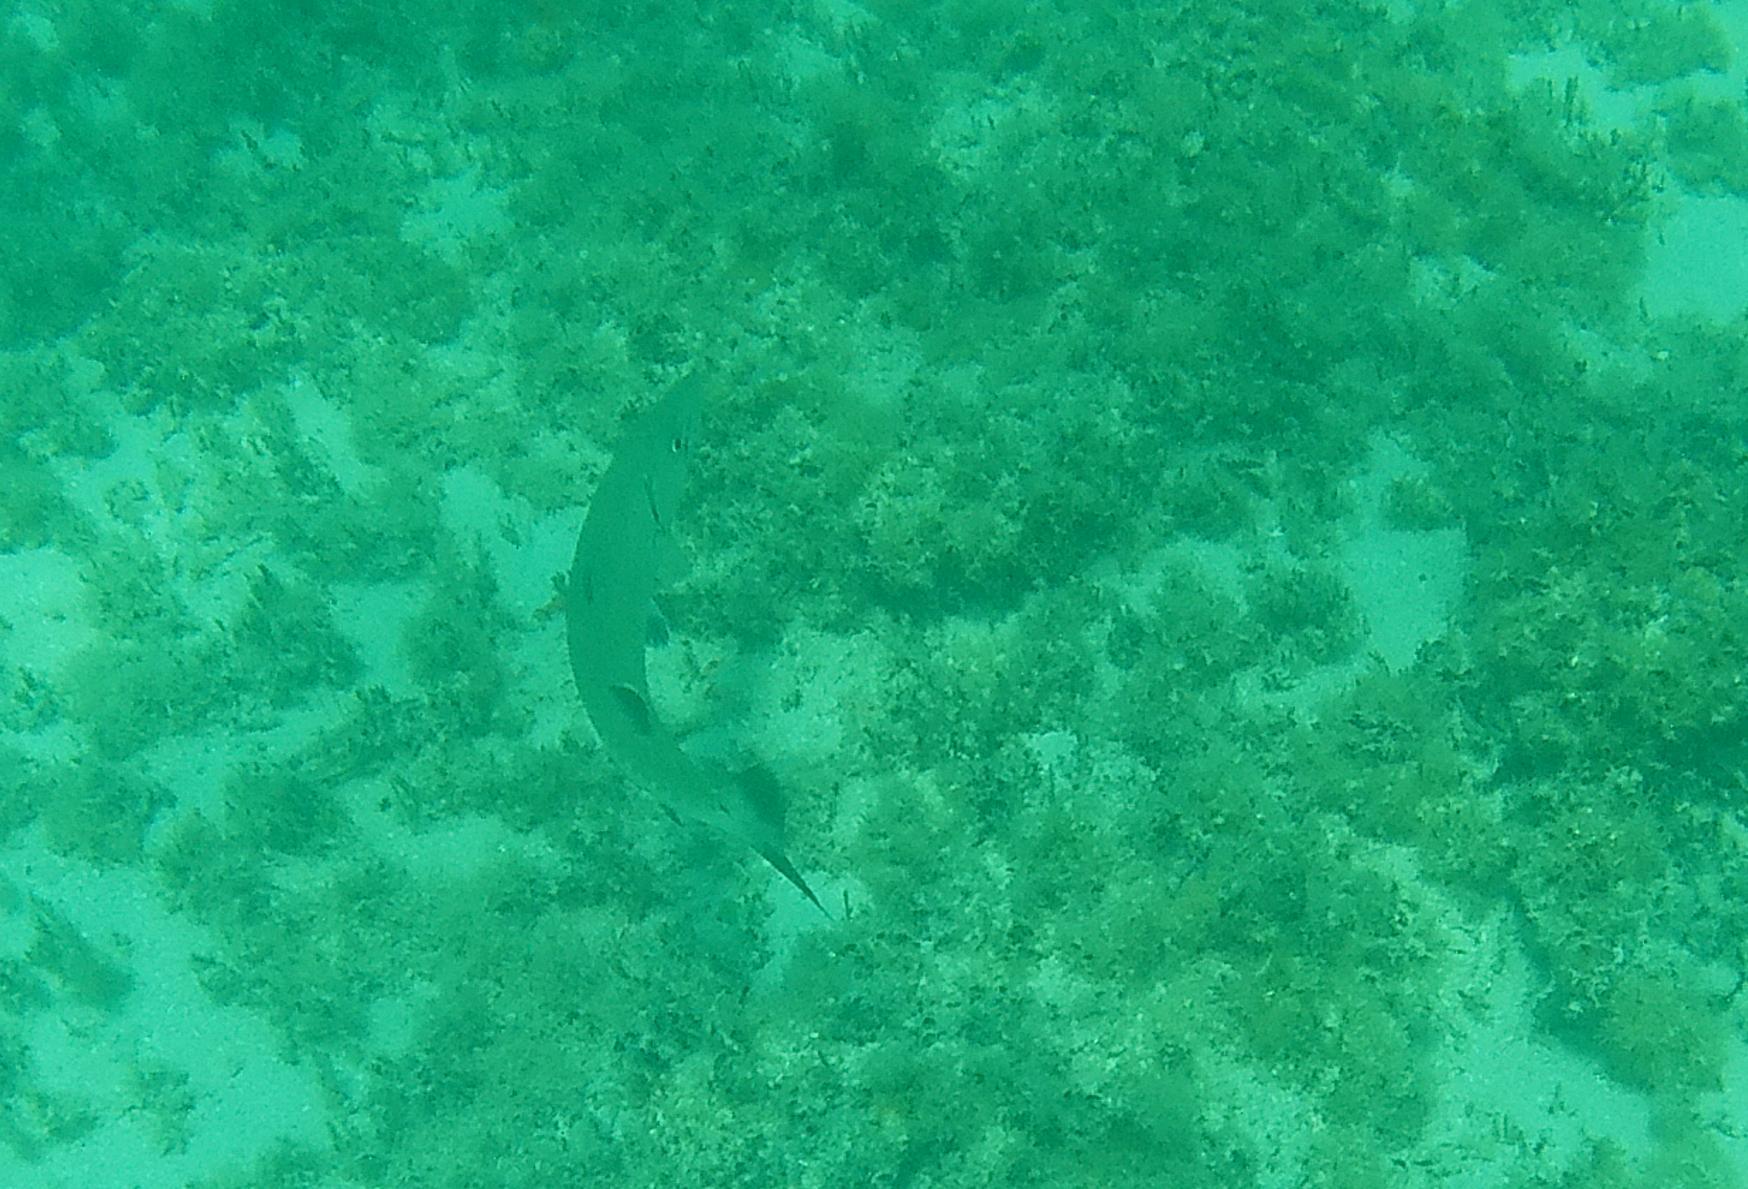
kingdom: Animalia
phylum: Chordata
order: Perciformes
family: Sphyraenidae
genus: Sphyraena
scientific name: Sphyraena barracuda
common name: Great barracuda
